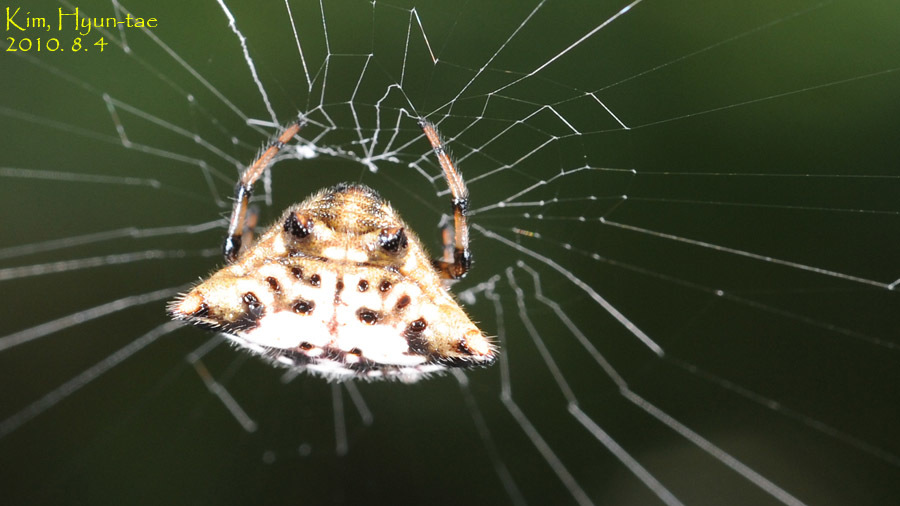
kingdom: Animalia
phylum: Arthropoda
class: Arachnida
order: Araneae
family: Araneidae
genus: Gasteracantha
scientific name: Gasteracantha kuhli
